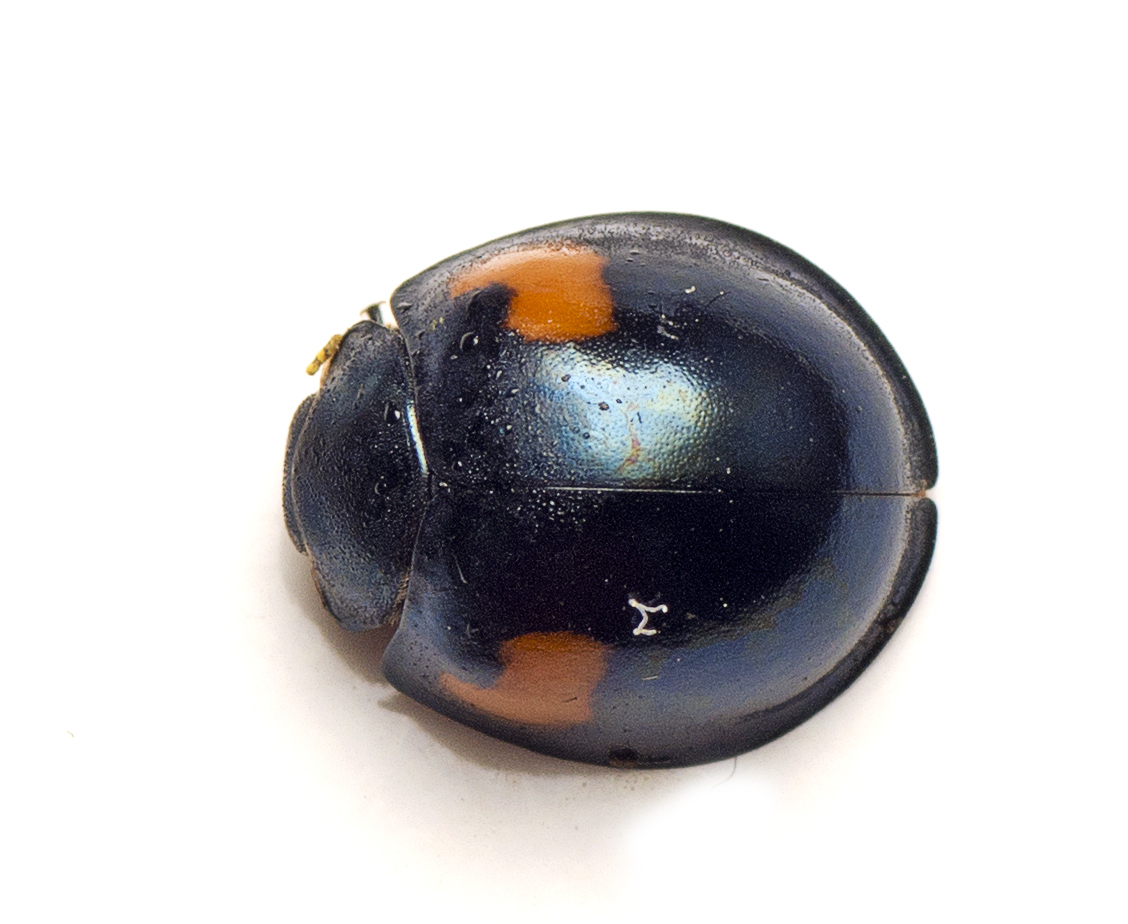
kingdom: Animalia
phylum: Arthropoda
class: Insecta
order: Coleoptera
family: Coccinellidae
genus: Orcus
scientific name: Orcus
